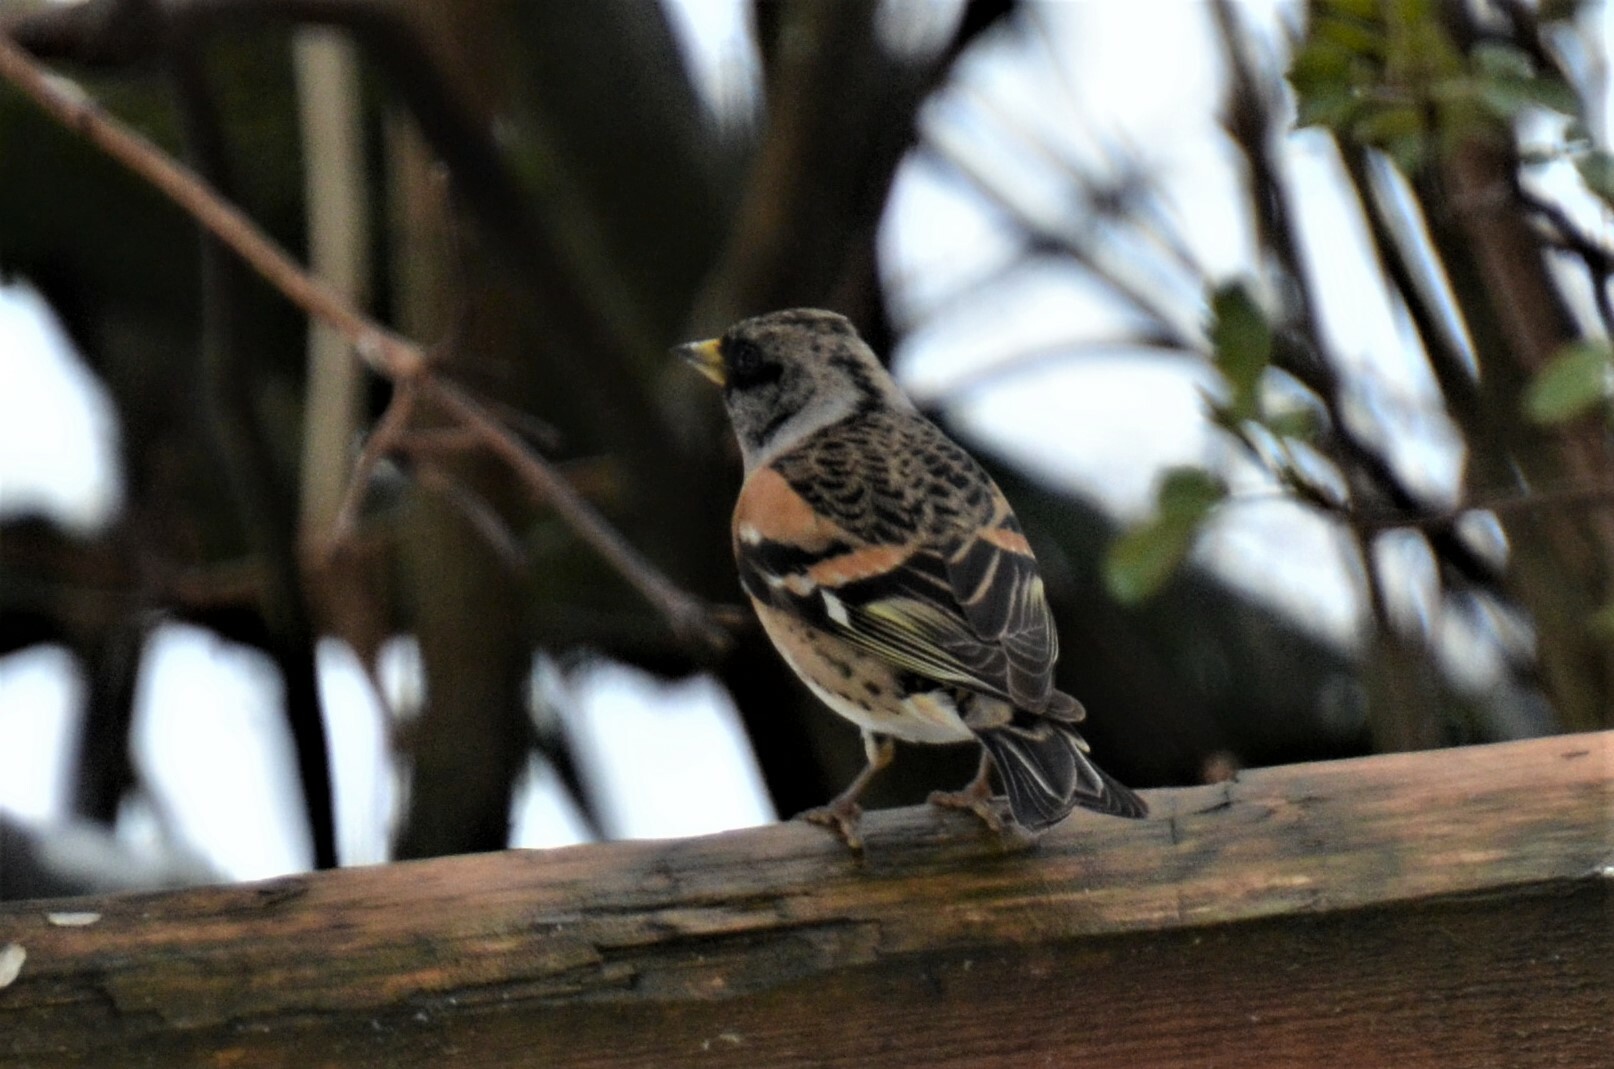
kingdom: Animalia
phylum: Chordata
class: Aves
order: Passeriformes
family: Fringillidae
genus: Fringilla
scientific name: Fringilla montifringilla
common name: Brambling
